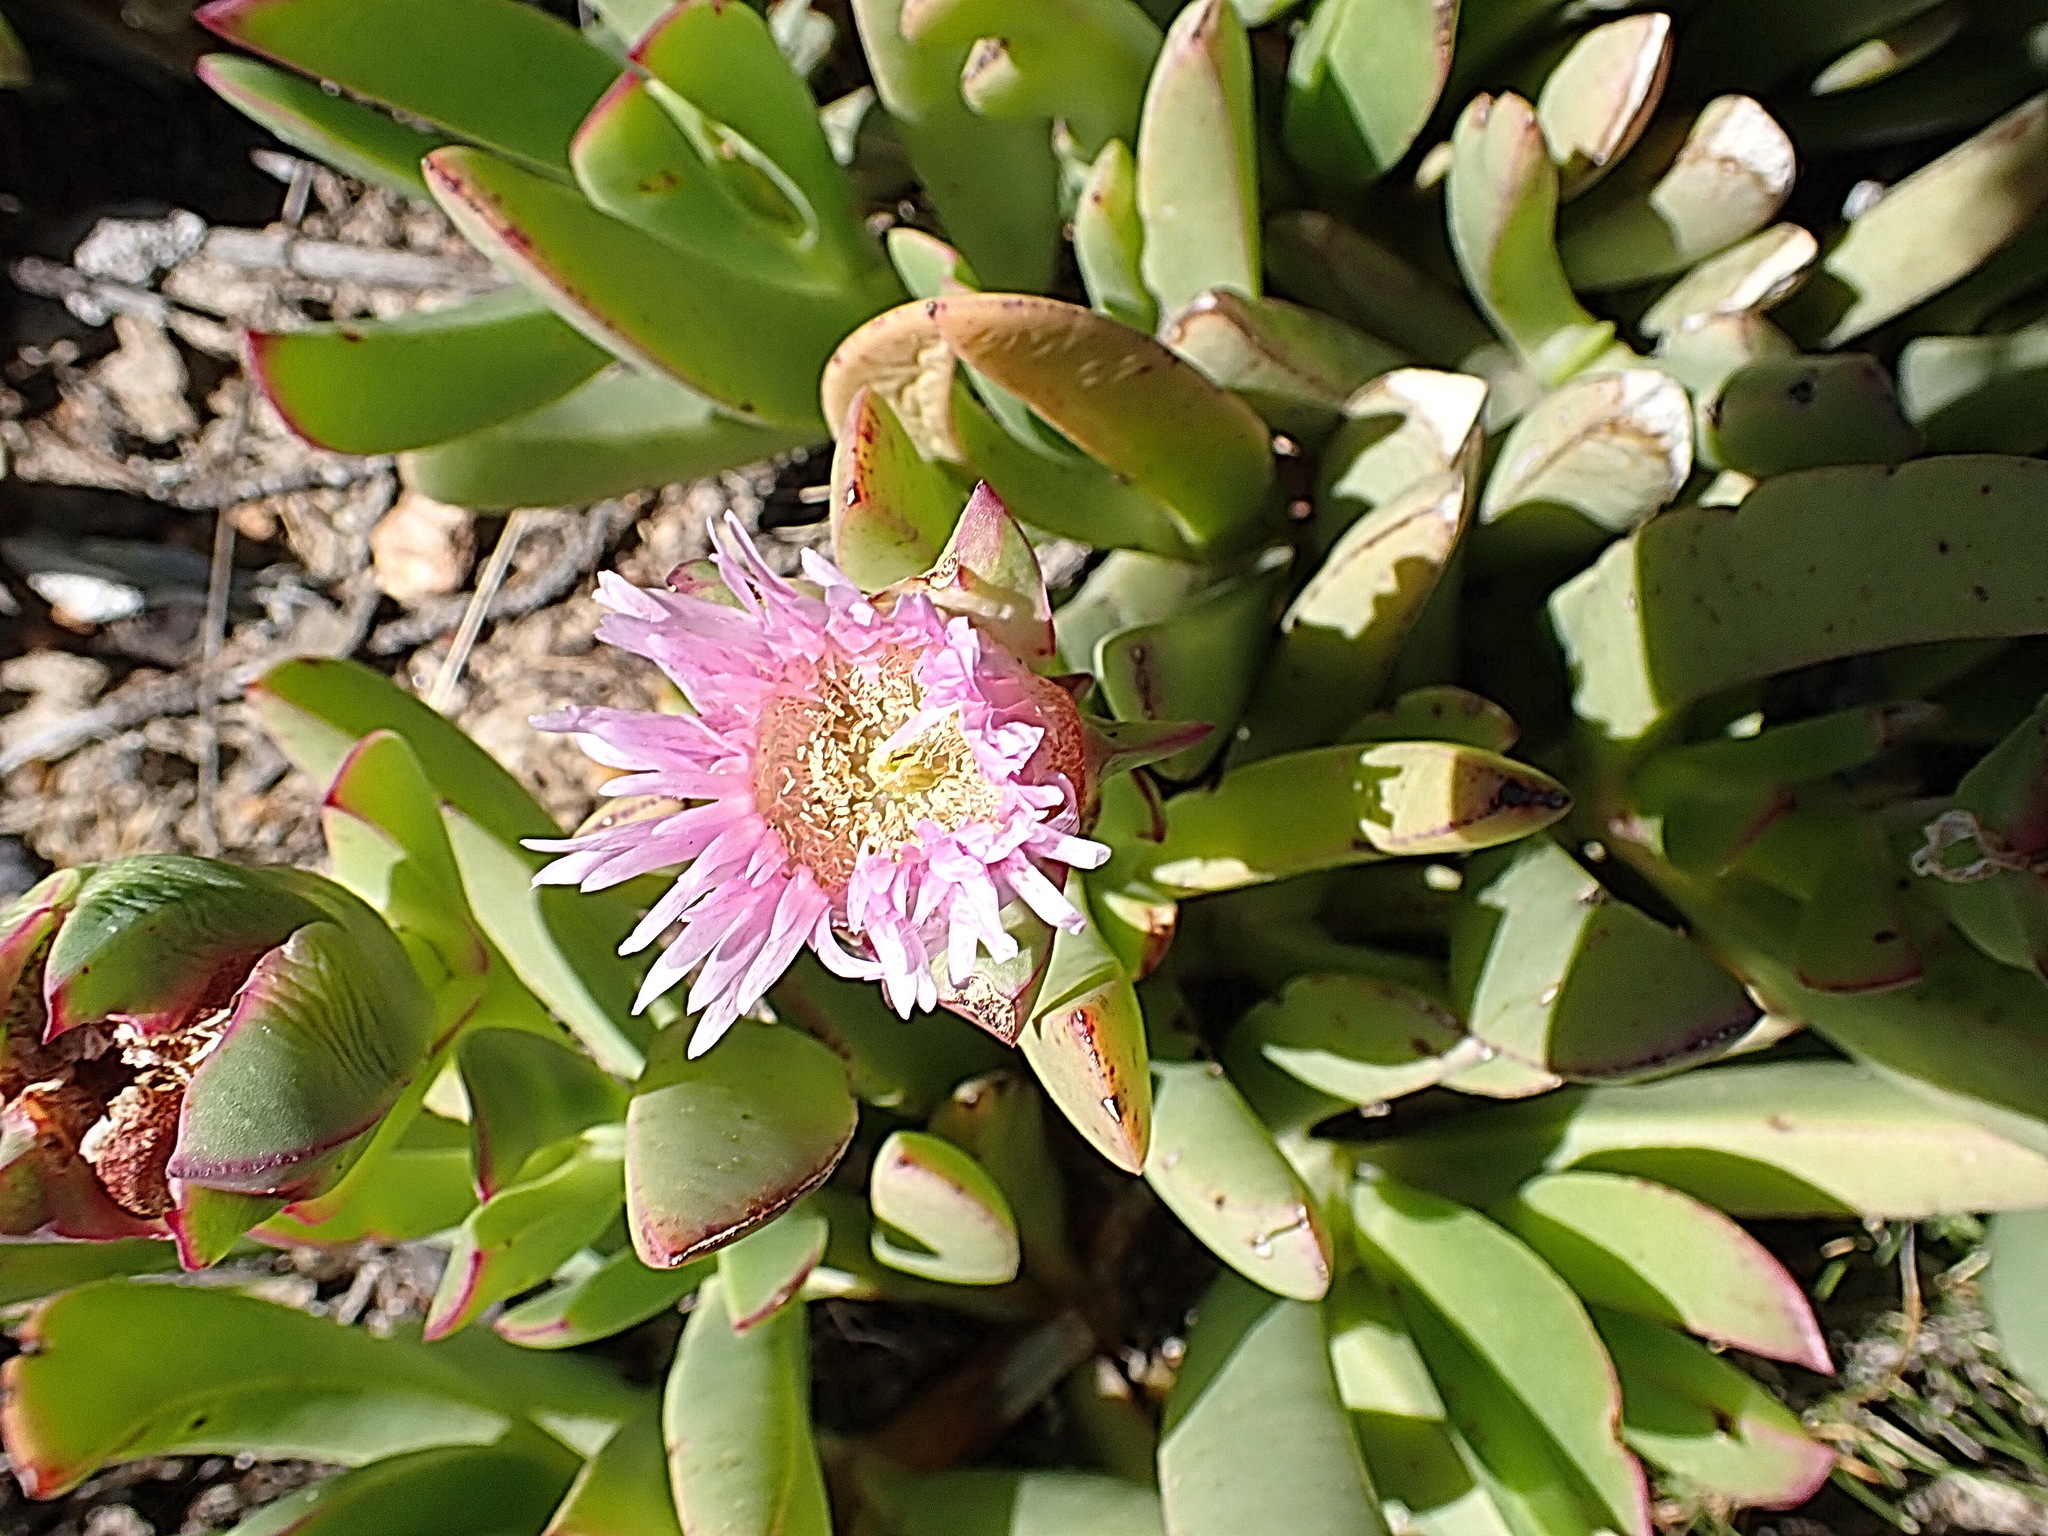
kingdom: Plantae
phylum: Tracheophyta
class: Magnoliopsida
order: Caryophyllales
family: Aizoaceae
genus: Carpobrotus
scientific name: Carpobrotus mellei
